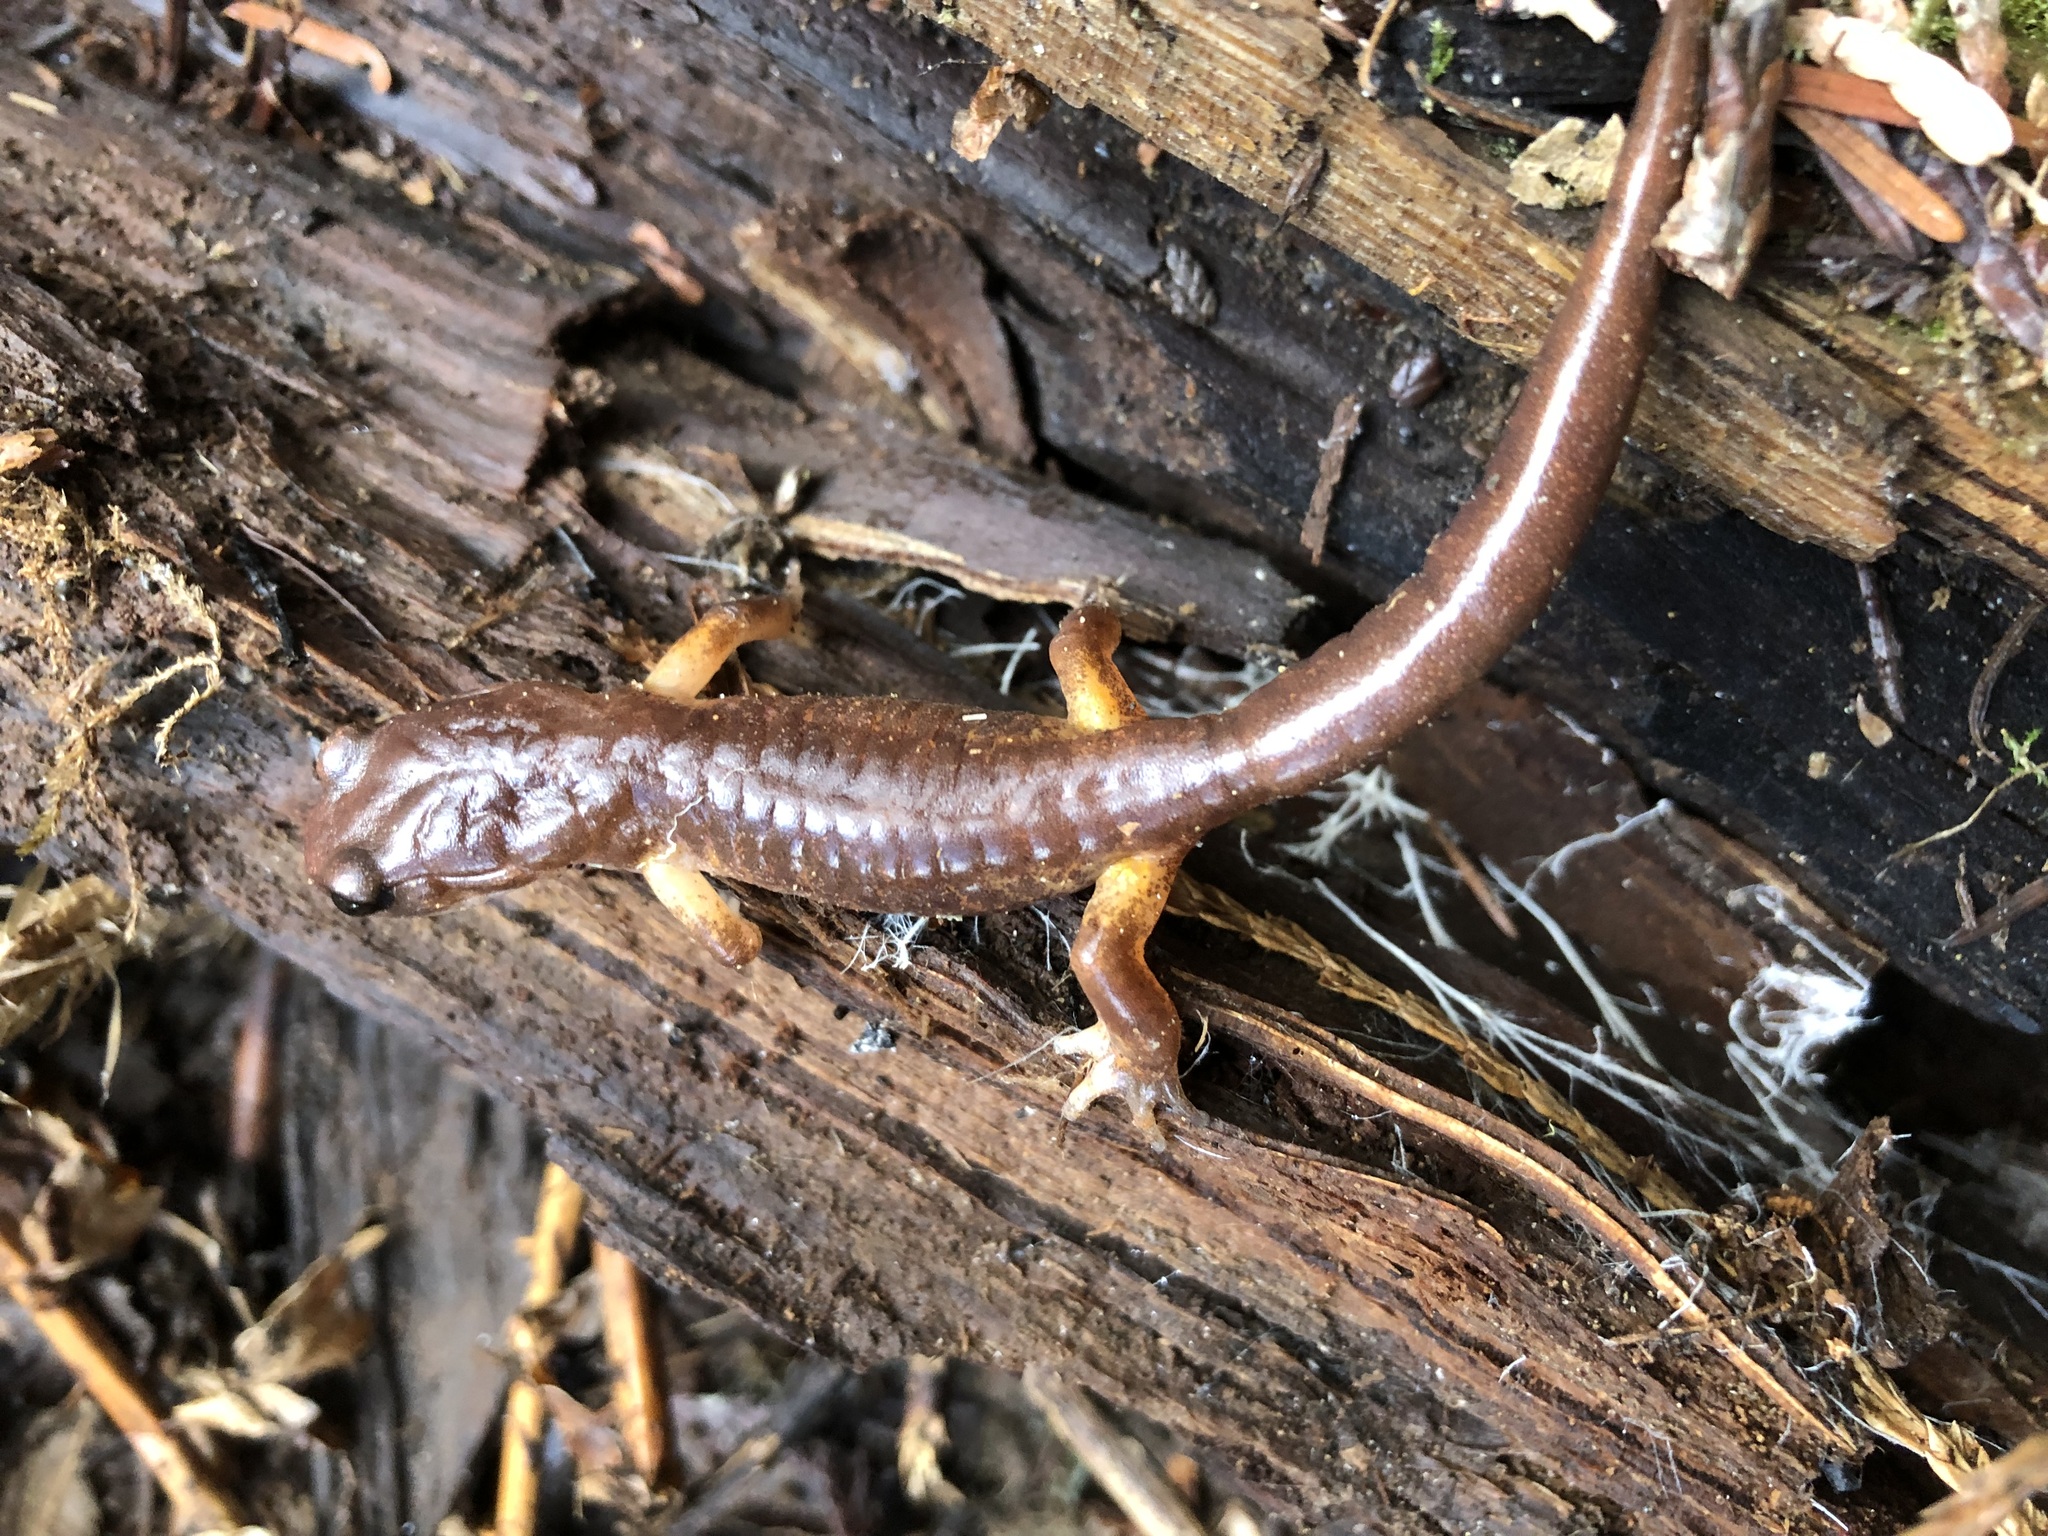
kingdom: Animalia
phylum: Chordata
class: Amphibia
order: Caudata
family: Plethodontidae
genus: Ensatina
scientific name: Ensatina eschscholtzii
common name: Ensatina
